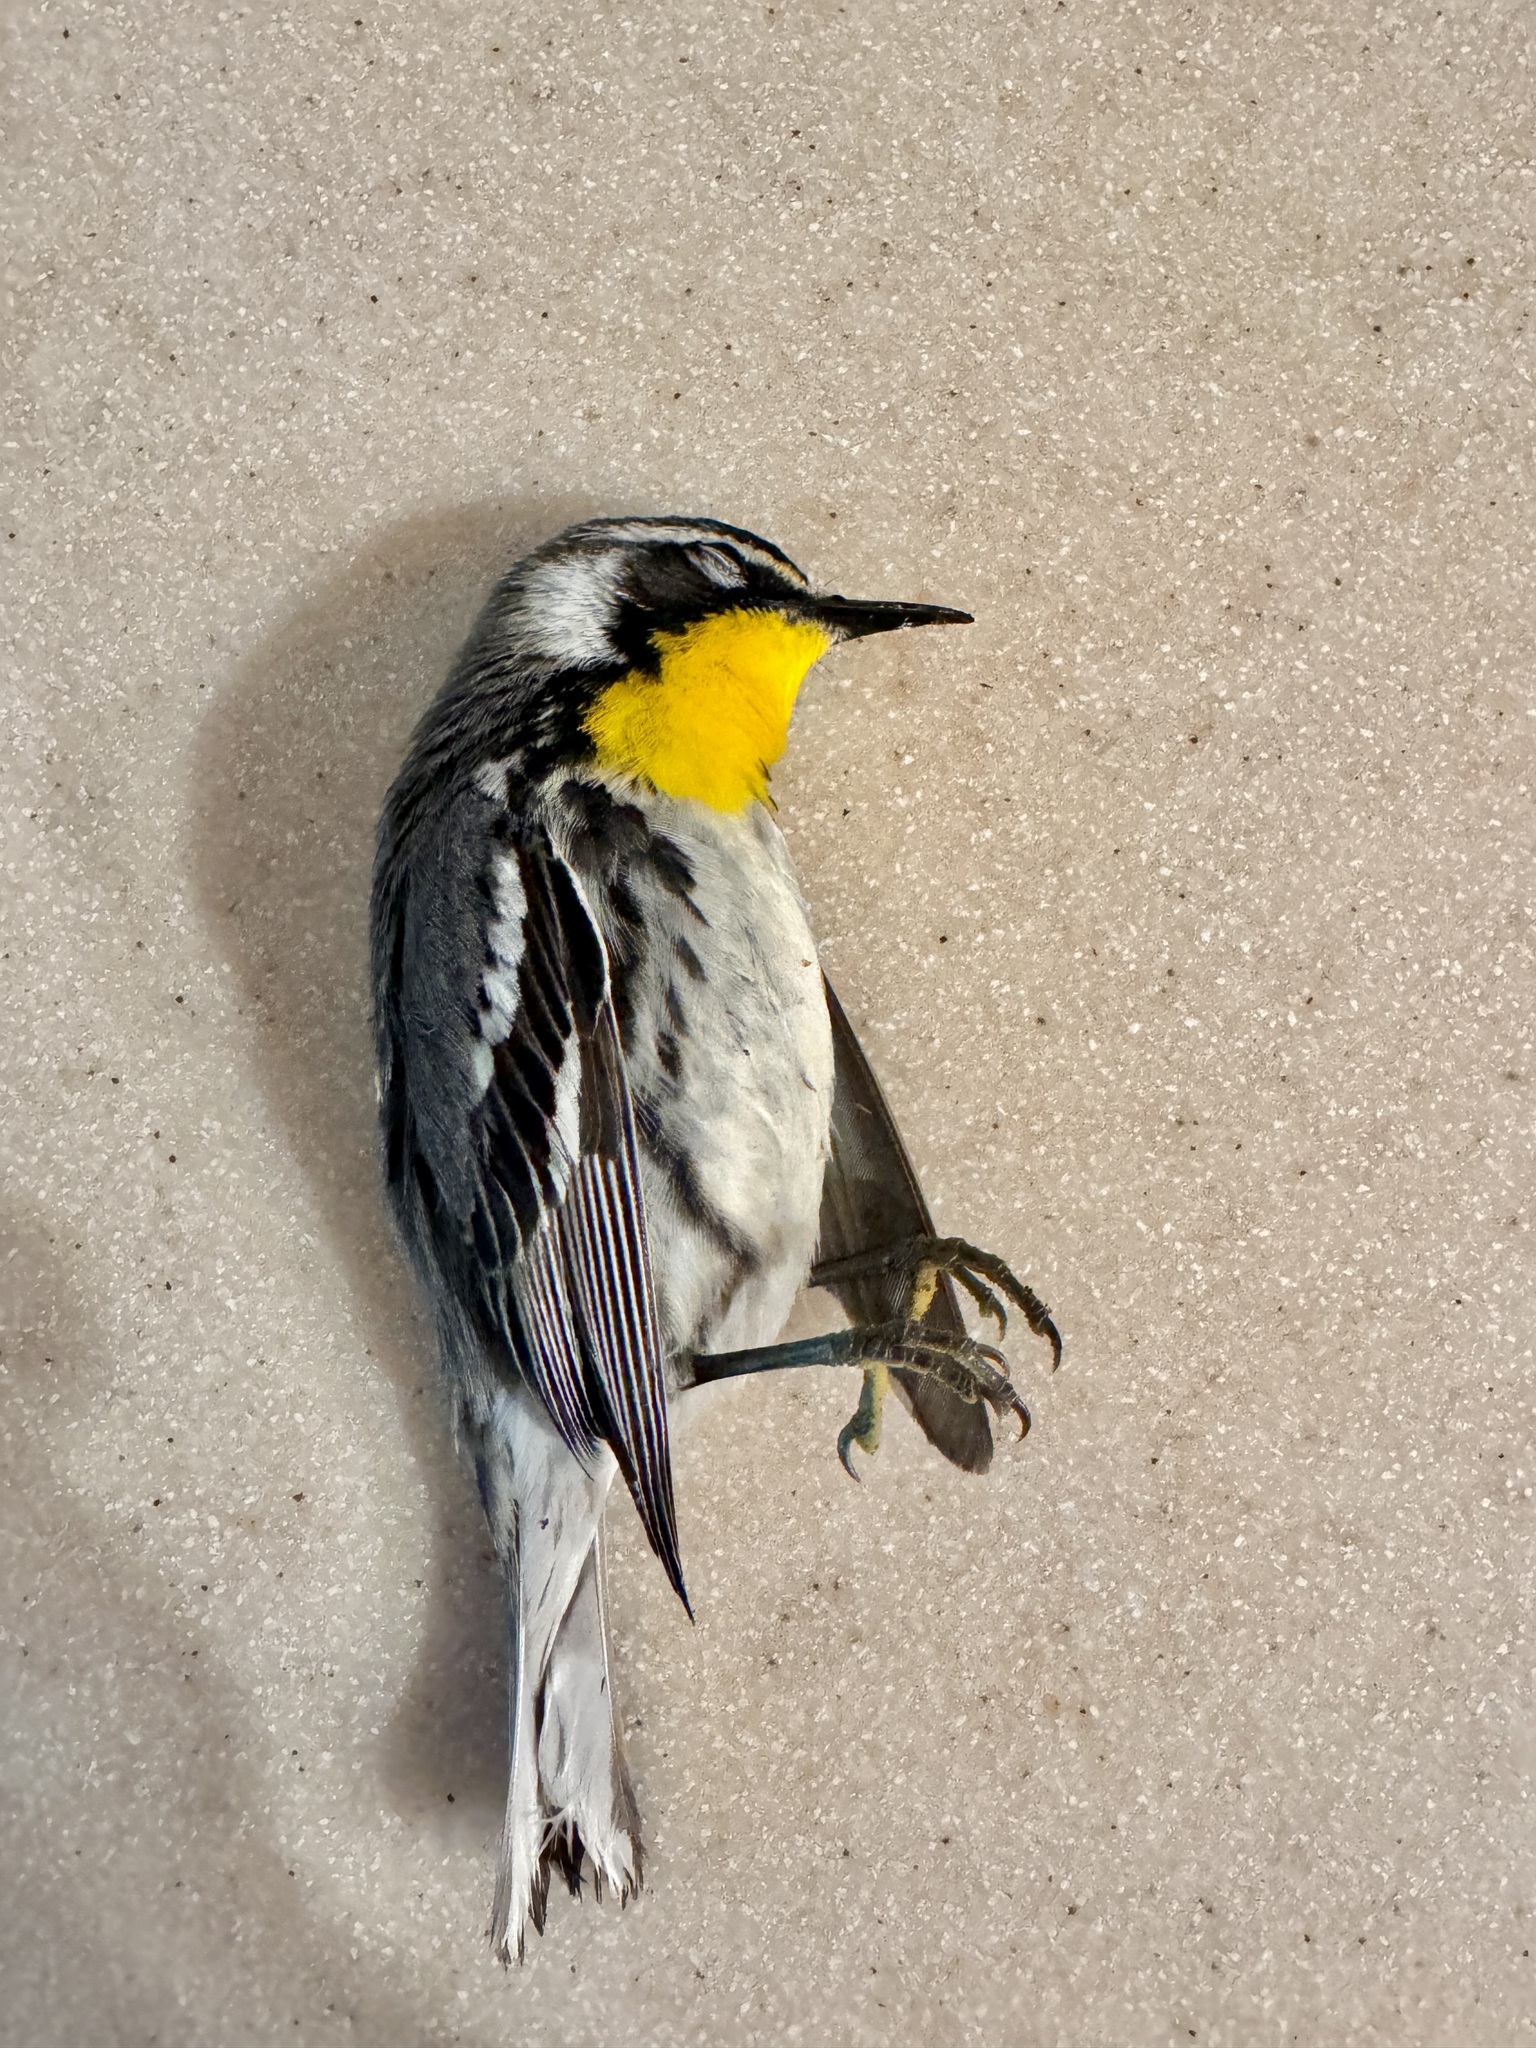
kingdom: Animalia
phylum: Chordata
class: Aves
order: Passeriformes
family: Parulidae
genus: Setophaga
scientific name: Setophaga dominica
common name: Yellow-throated warbler
